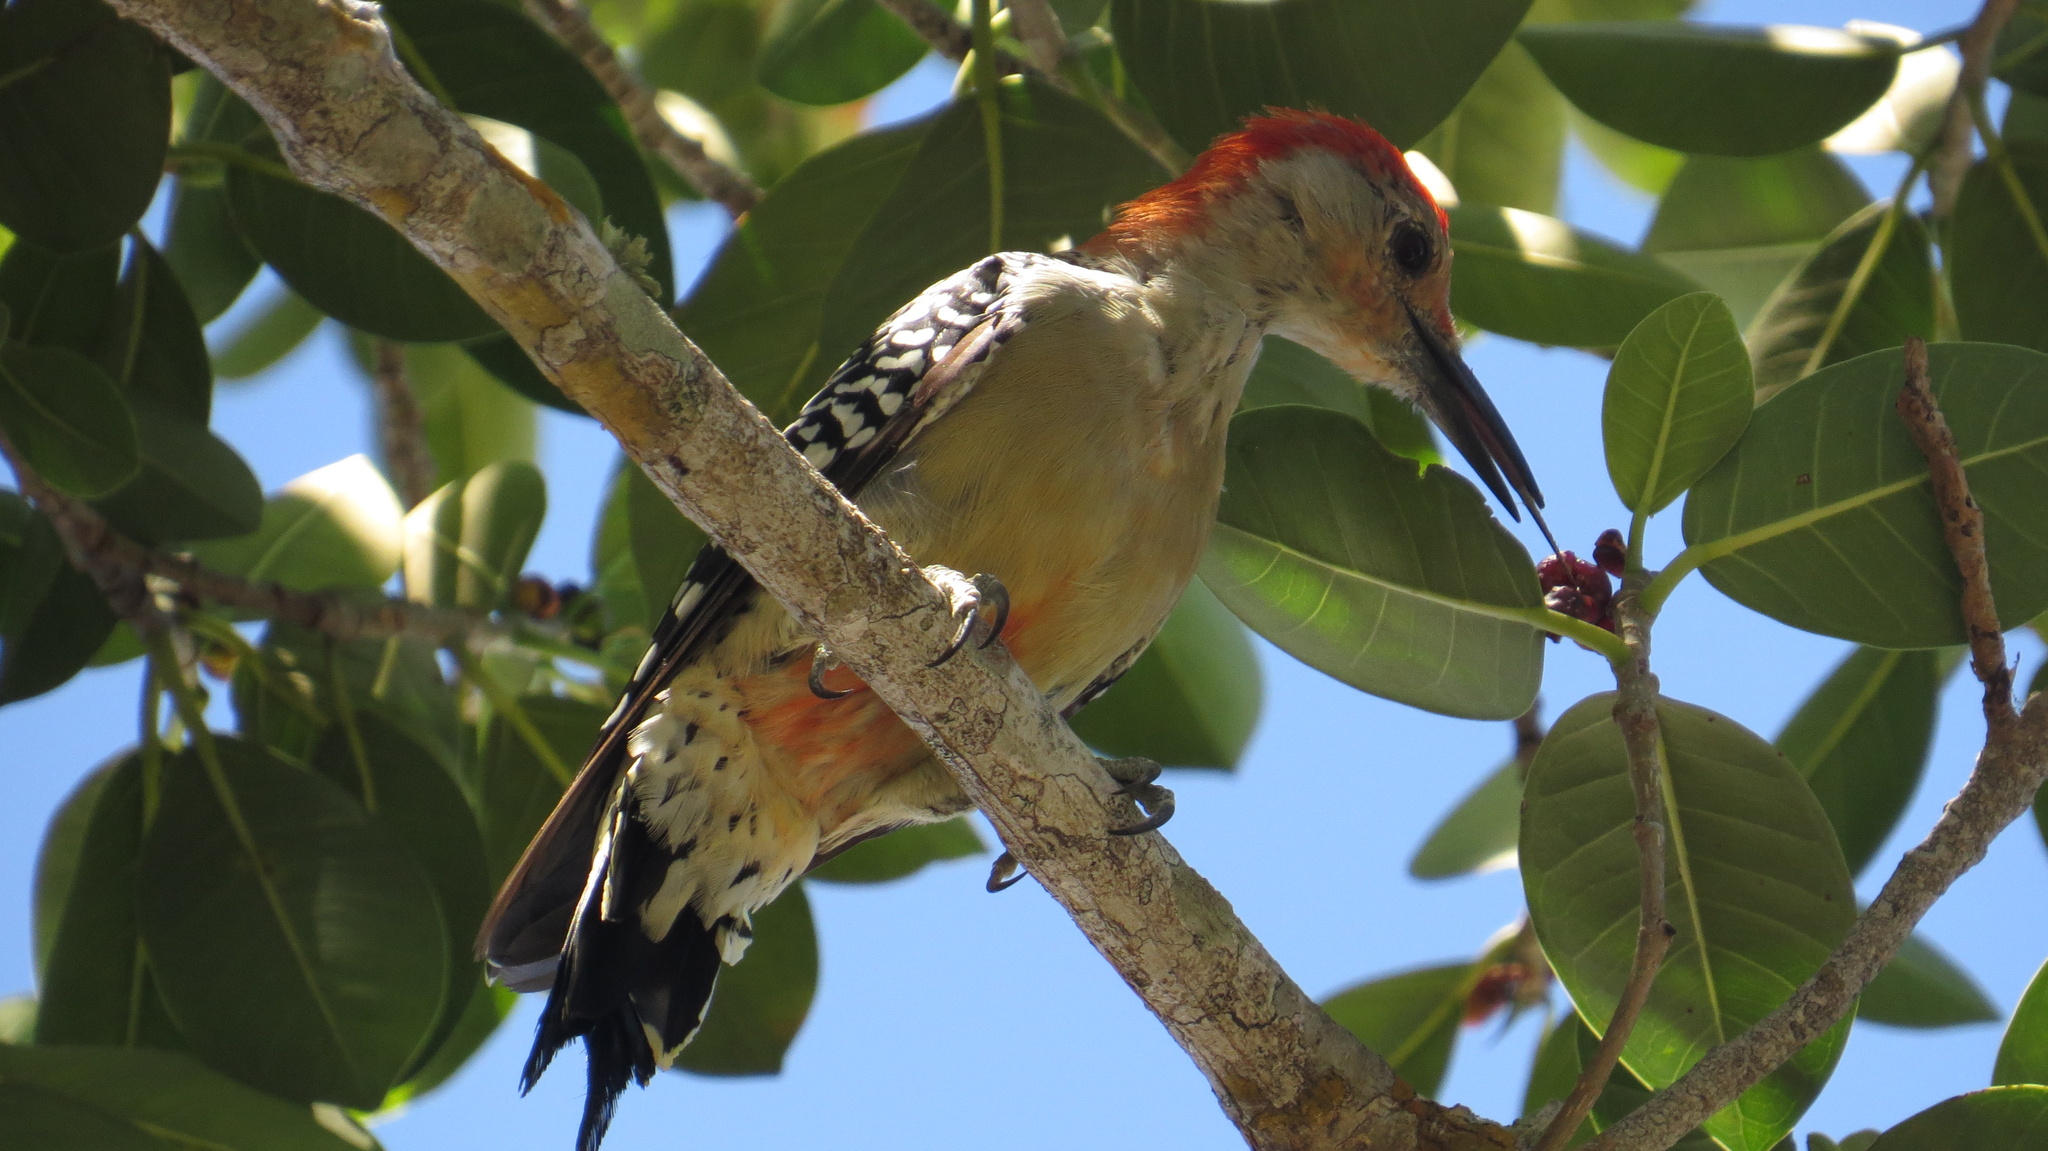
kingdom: Animalia
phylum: Chordata
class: Aves
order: Piciformes
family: Picidae
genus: Melanerpes
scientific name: Melanerpes carolinus
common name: Red-bellied woodpecker
